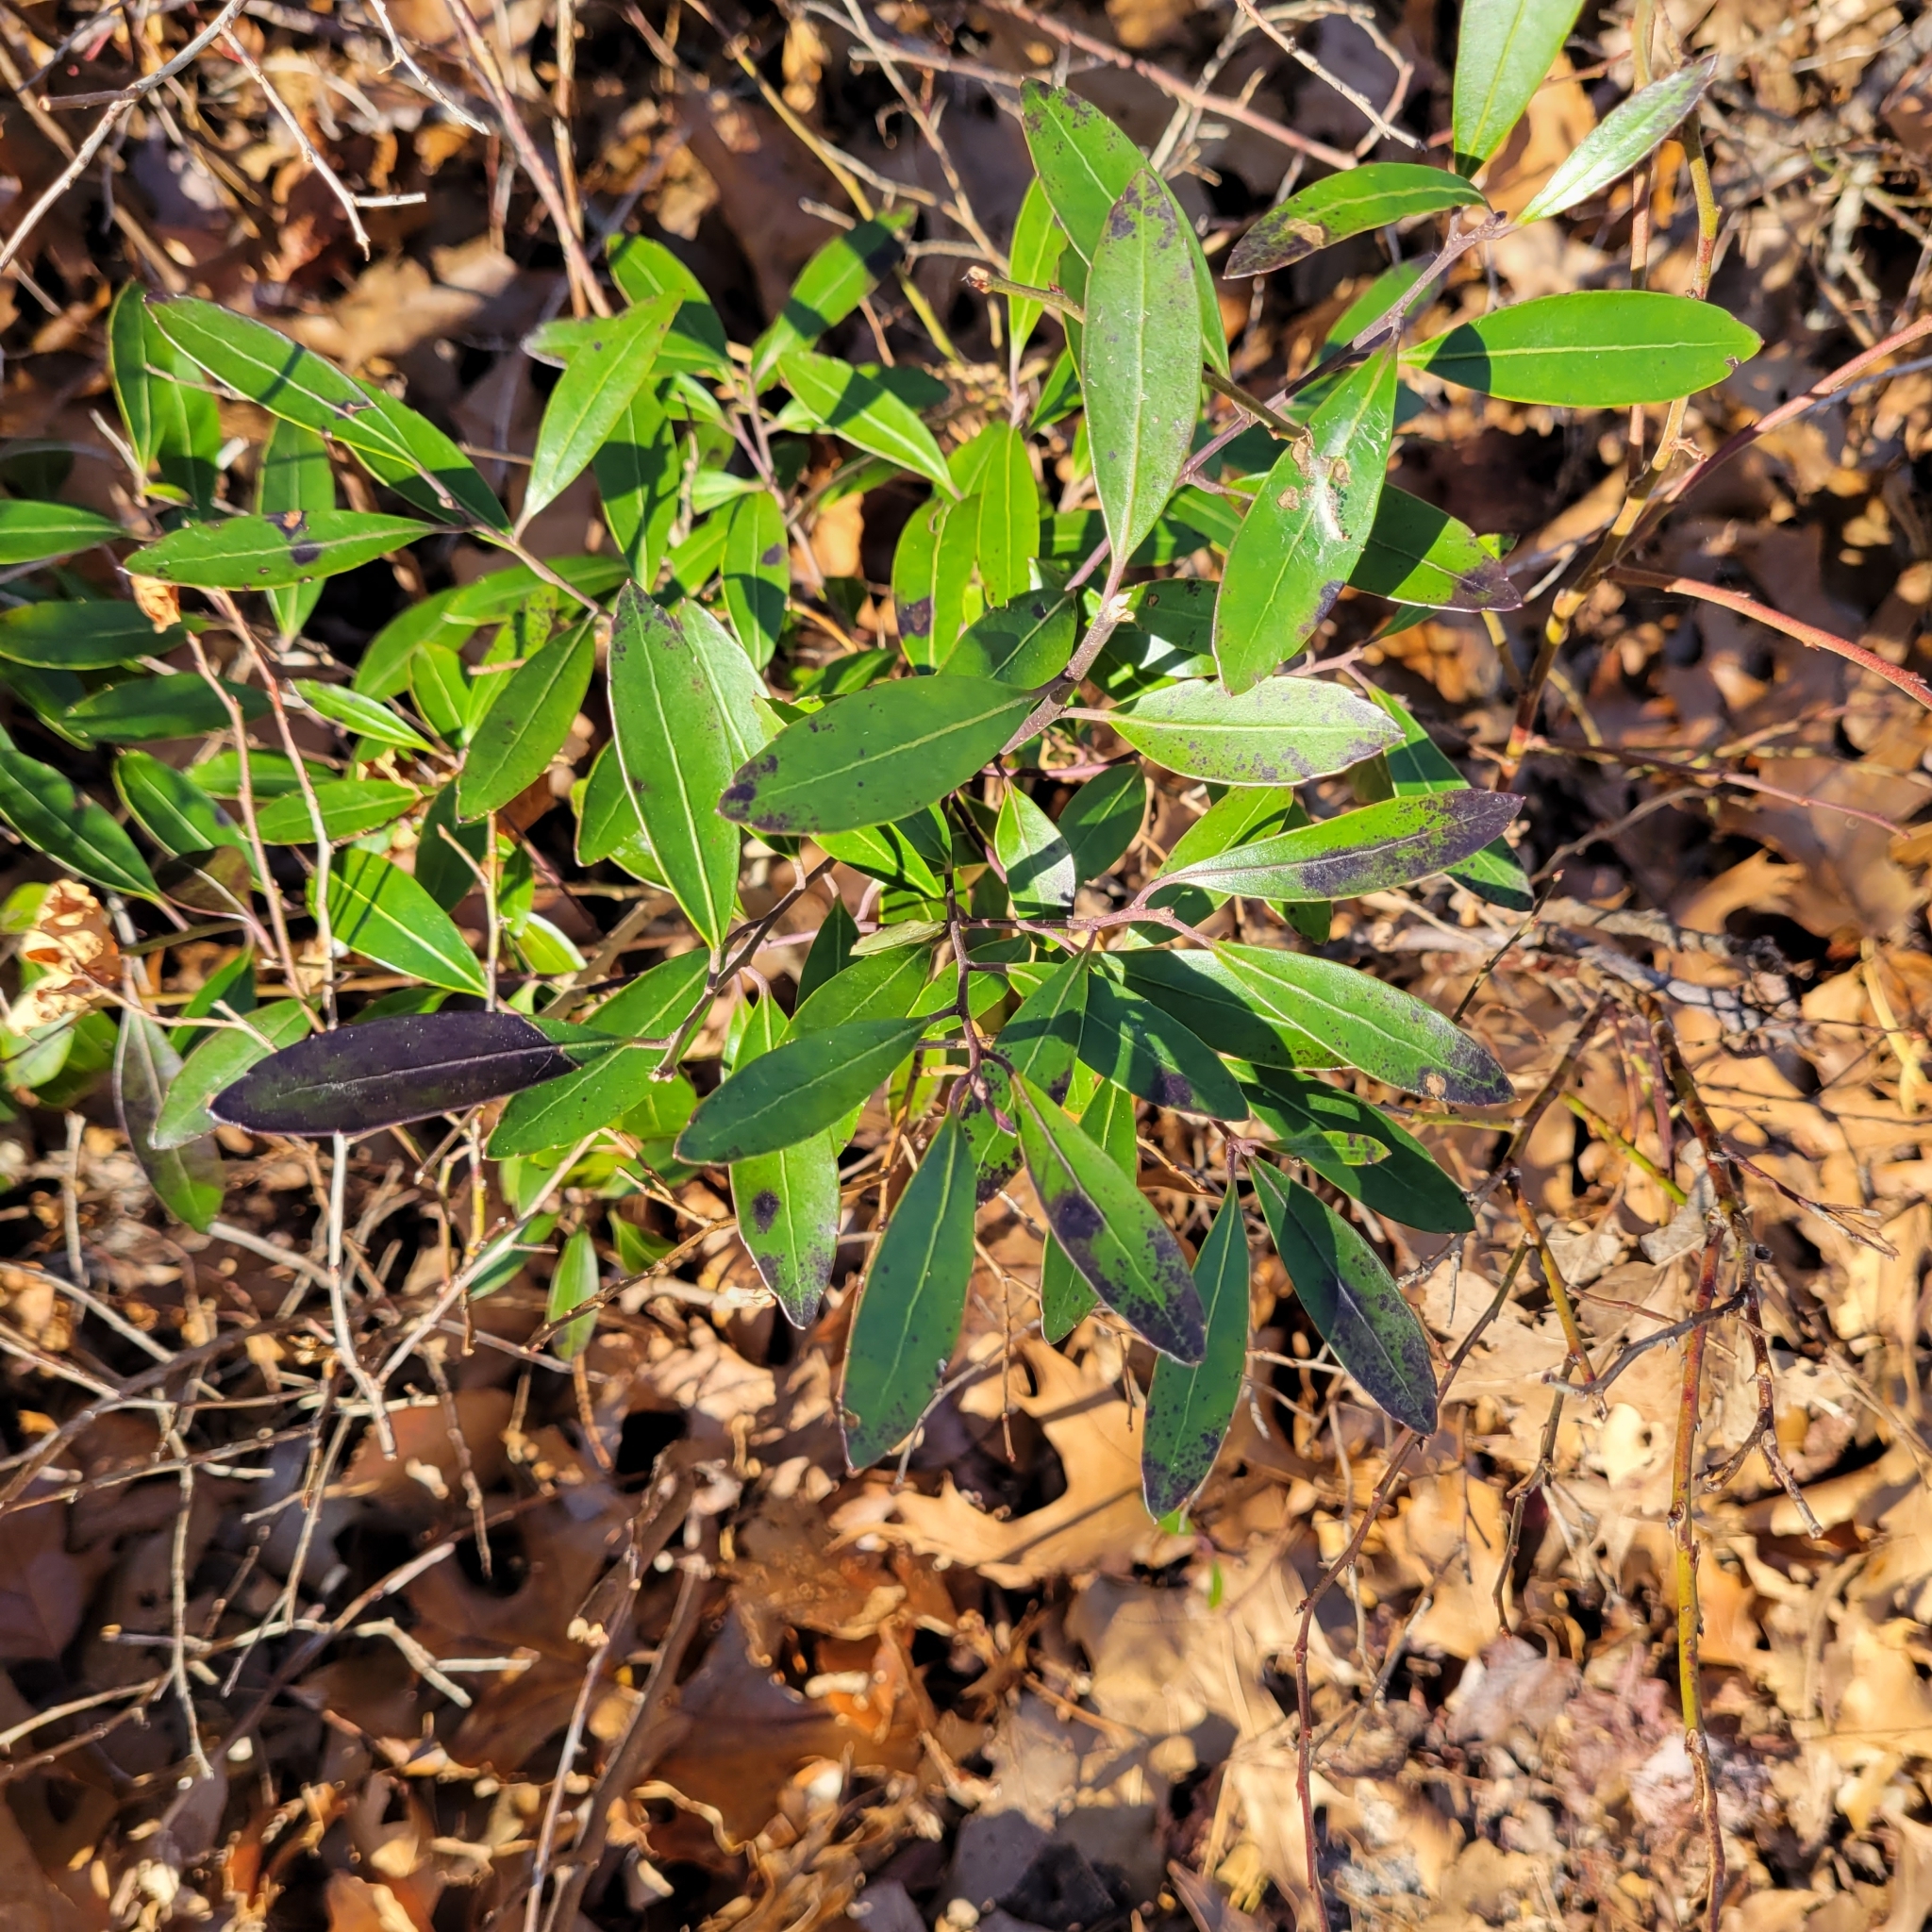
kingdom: Plantae
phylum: Tracheophyta
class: Magnoliopsida
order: Aquifoliales
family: Aquifoliaceae
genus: Ilex
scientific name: Ilex glabra
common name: Bitter gallberry
